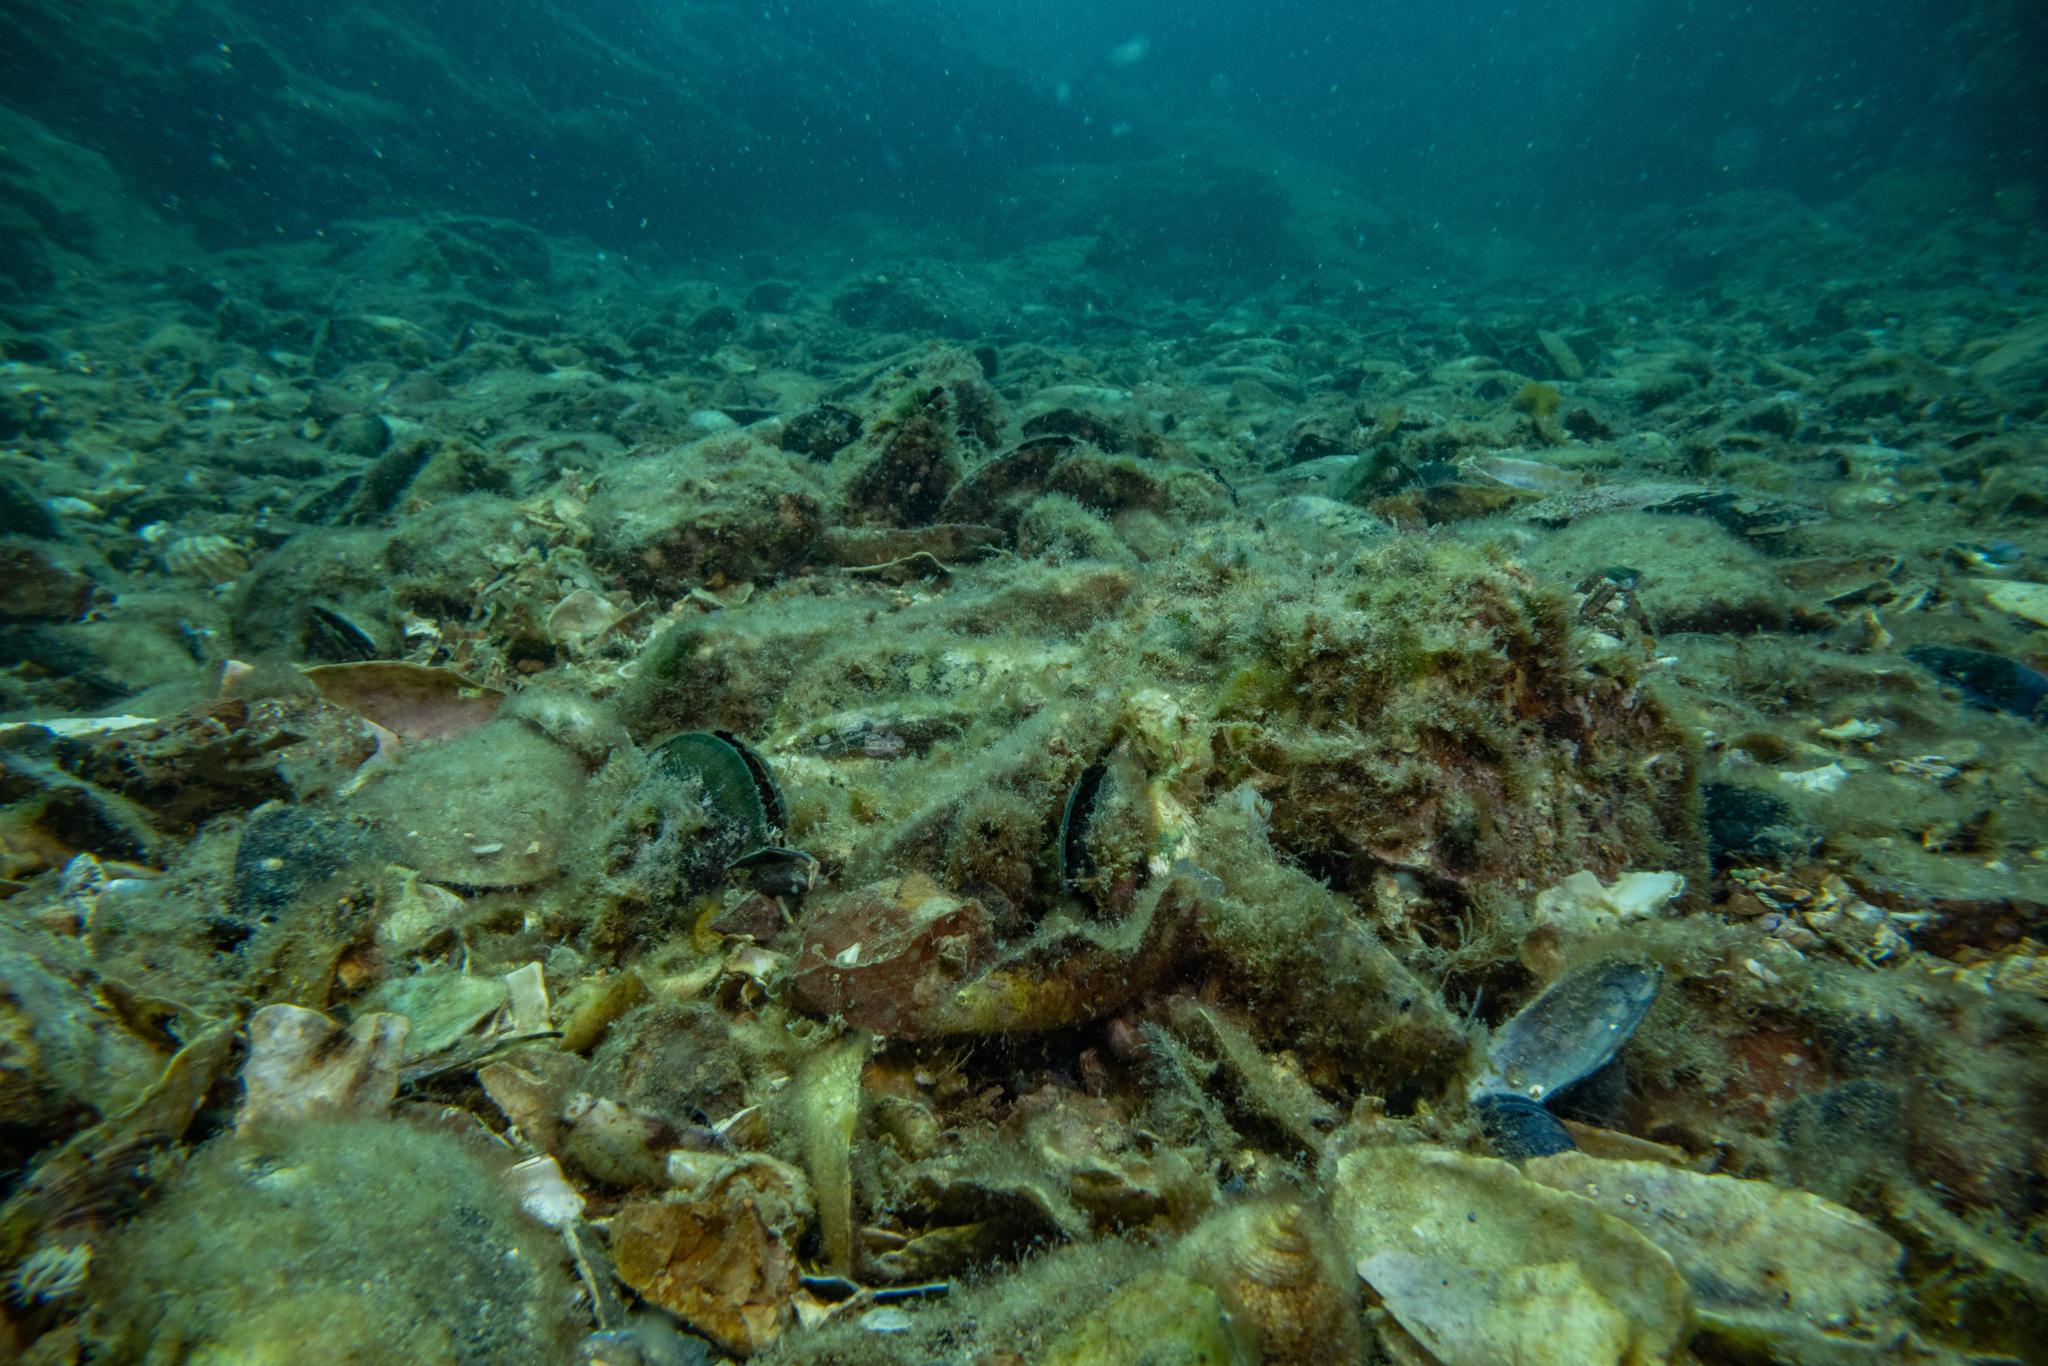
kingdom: Animalia
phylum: Mollusca
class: Bivalvia
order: Mytilida
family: Mytilidae
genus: Perna
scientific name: Perna canaliculus
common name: New zealand greenshelltm
